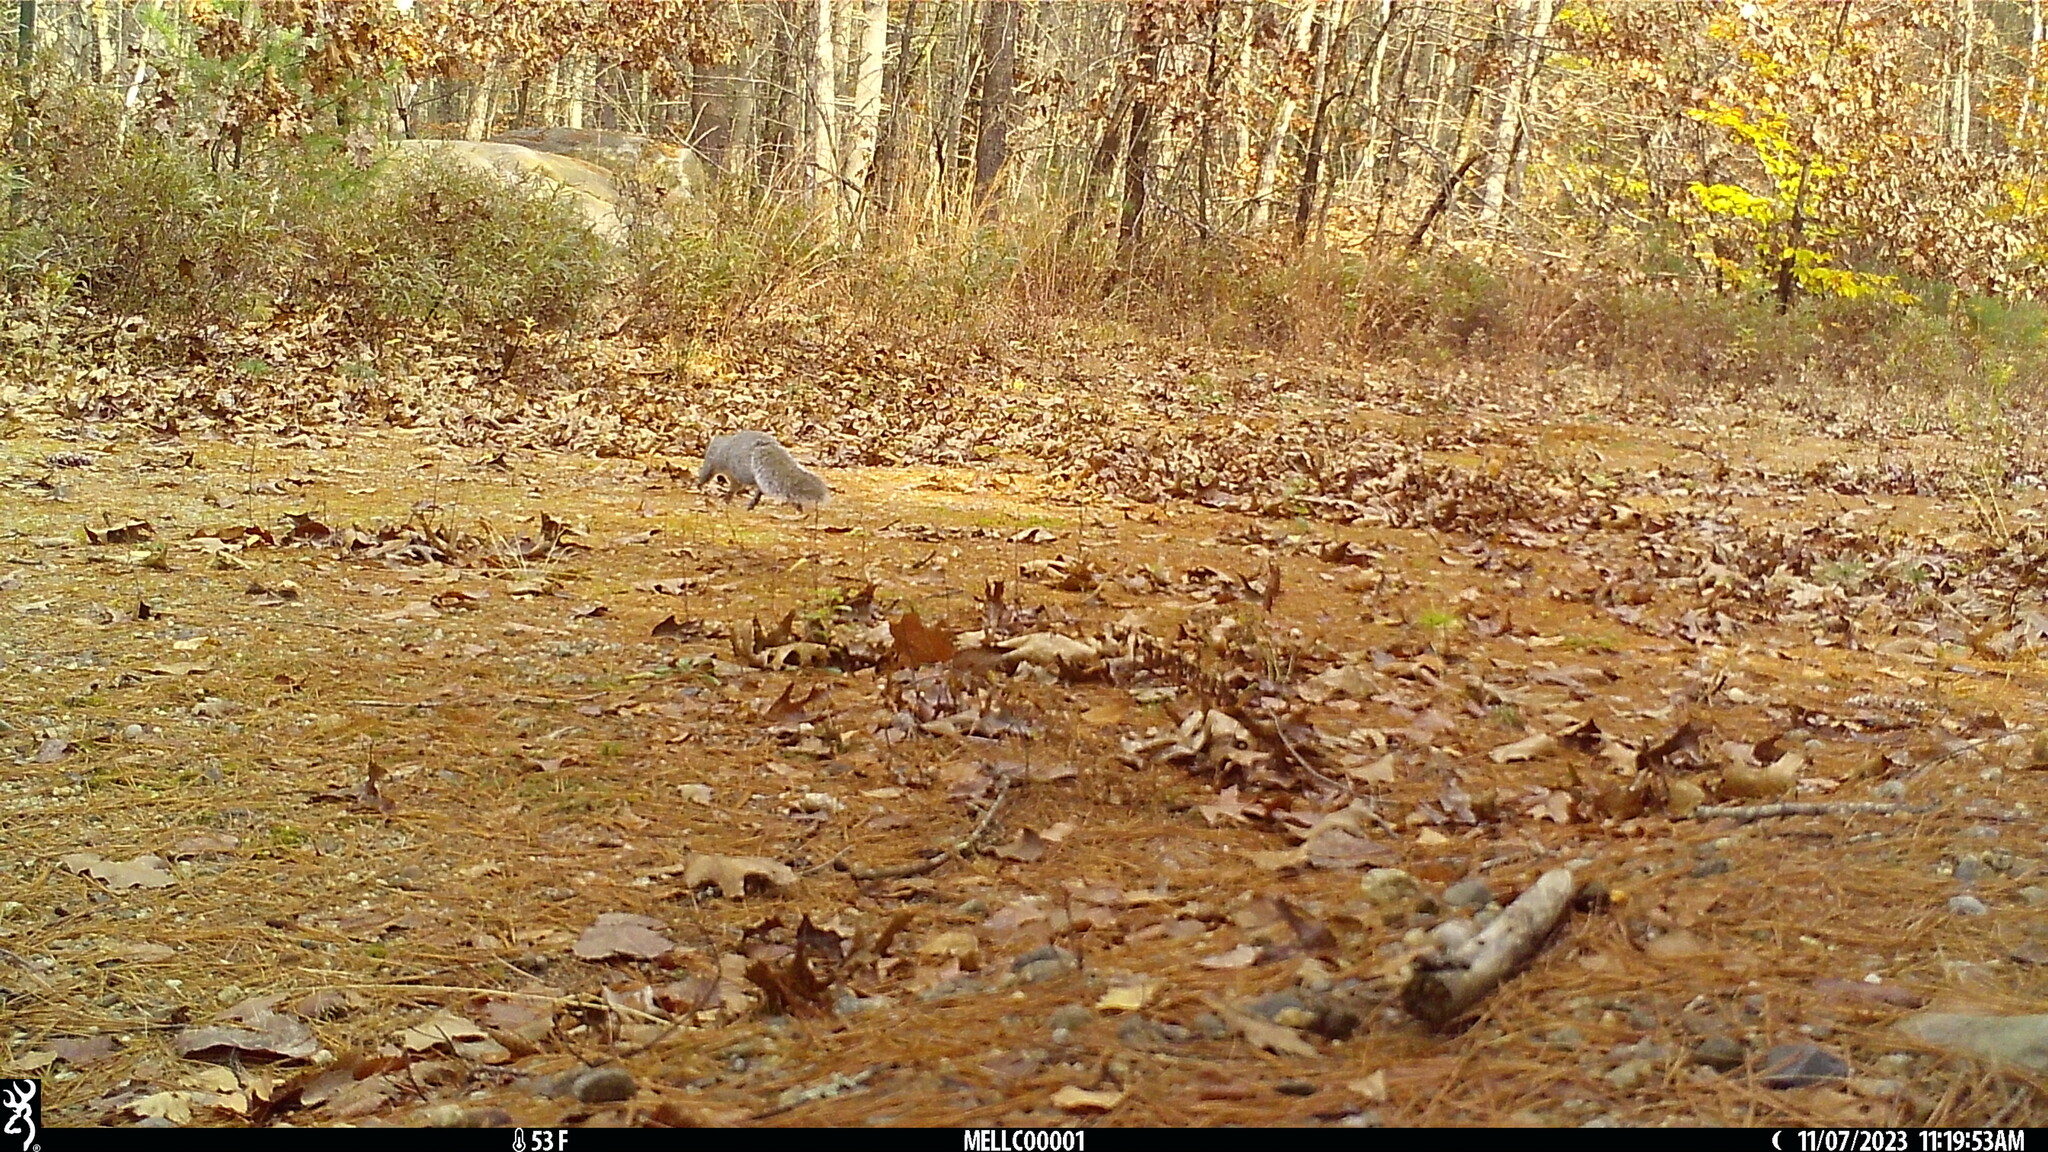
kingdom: Animalia
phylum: Chordata
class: Mammalia
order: Rodentia
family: Sciuridae
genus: Sciurus
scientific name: Sciurus carolinensis
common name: Eastern gray squirrel
